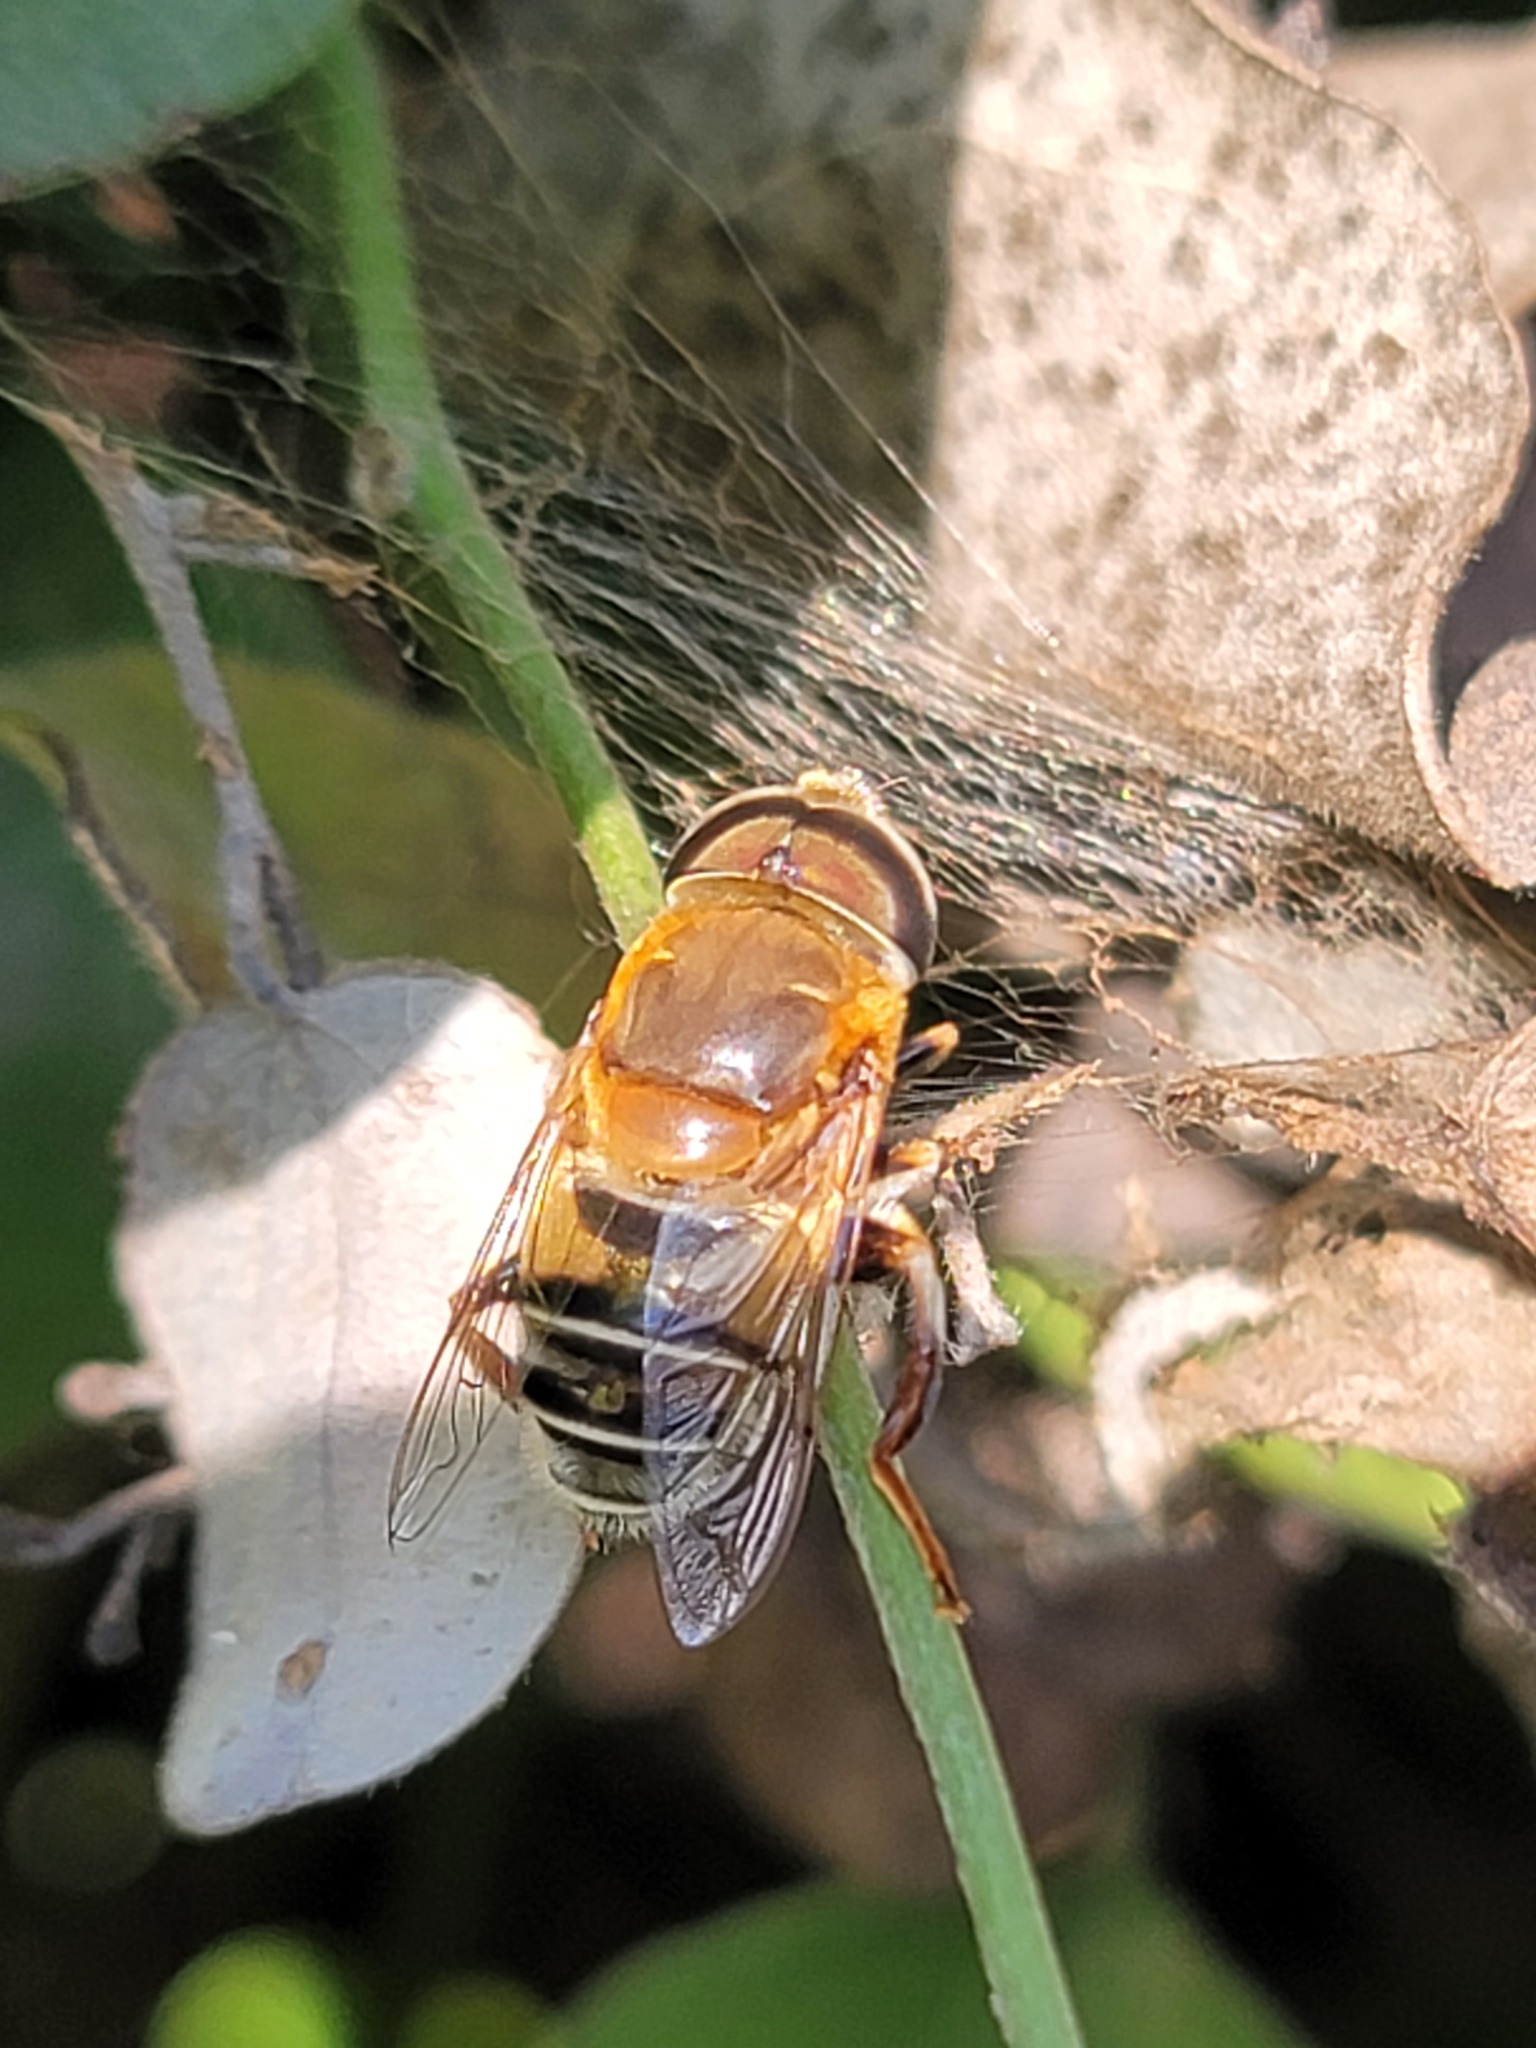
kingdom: Animalia
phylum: Arthropoda
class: Insecta
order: Diptera
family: Syrphidae
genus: Palpada
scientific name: Palpada mexicana
